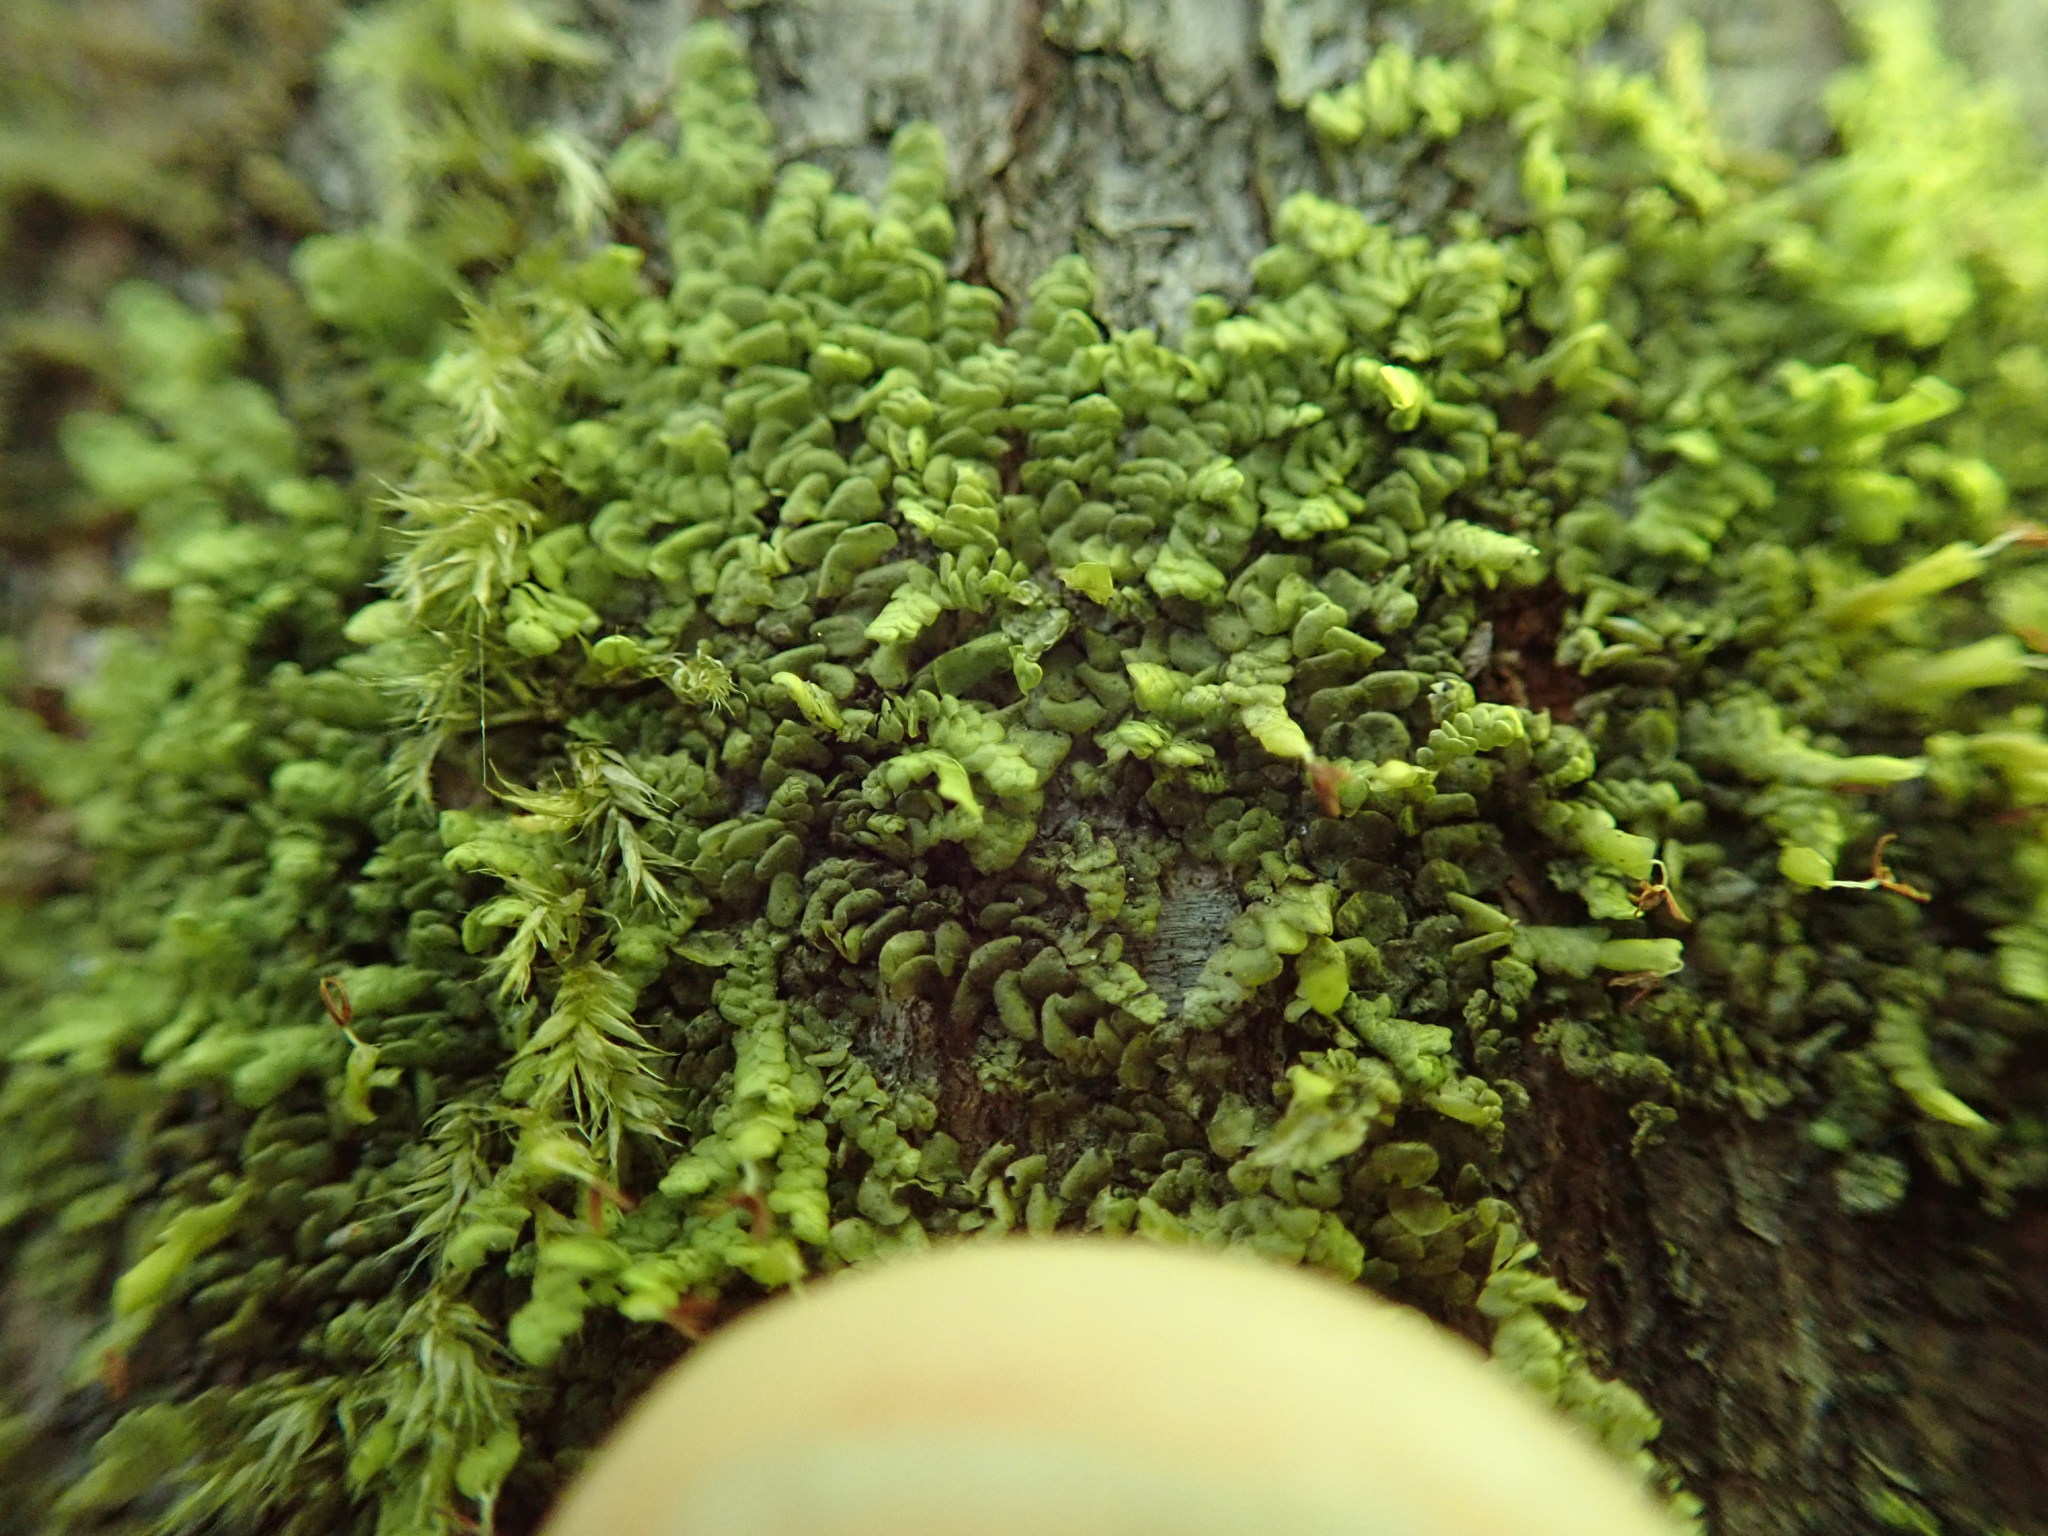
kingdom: Plantae
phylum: Marchantiophyta
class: Jungermanniopsida
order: Porellales
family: Radulaceae
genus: Radula
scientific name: Radula complanata
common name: Flat-leaved scalewort
